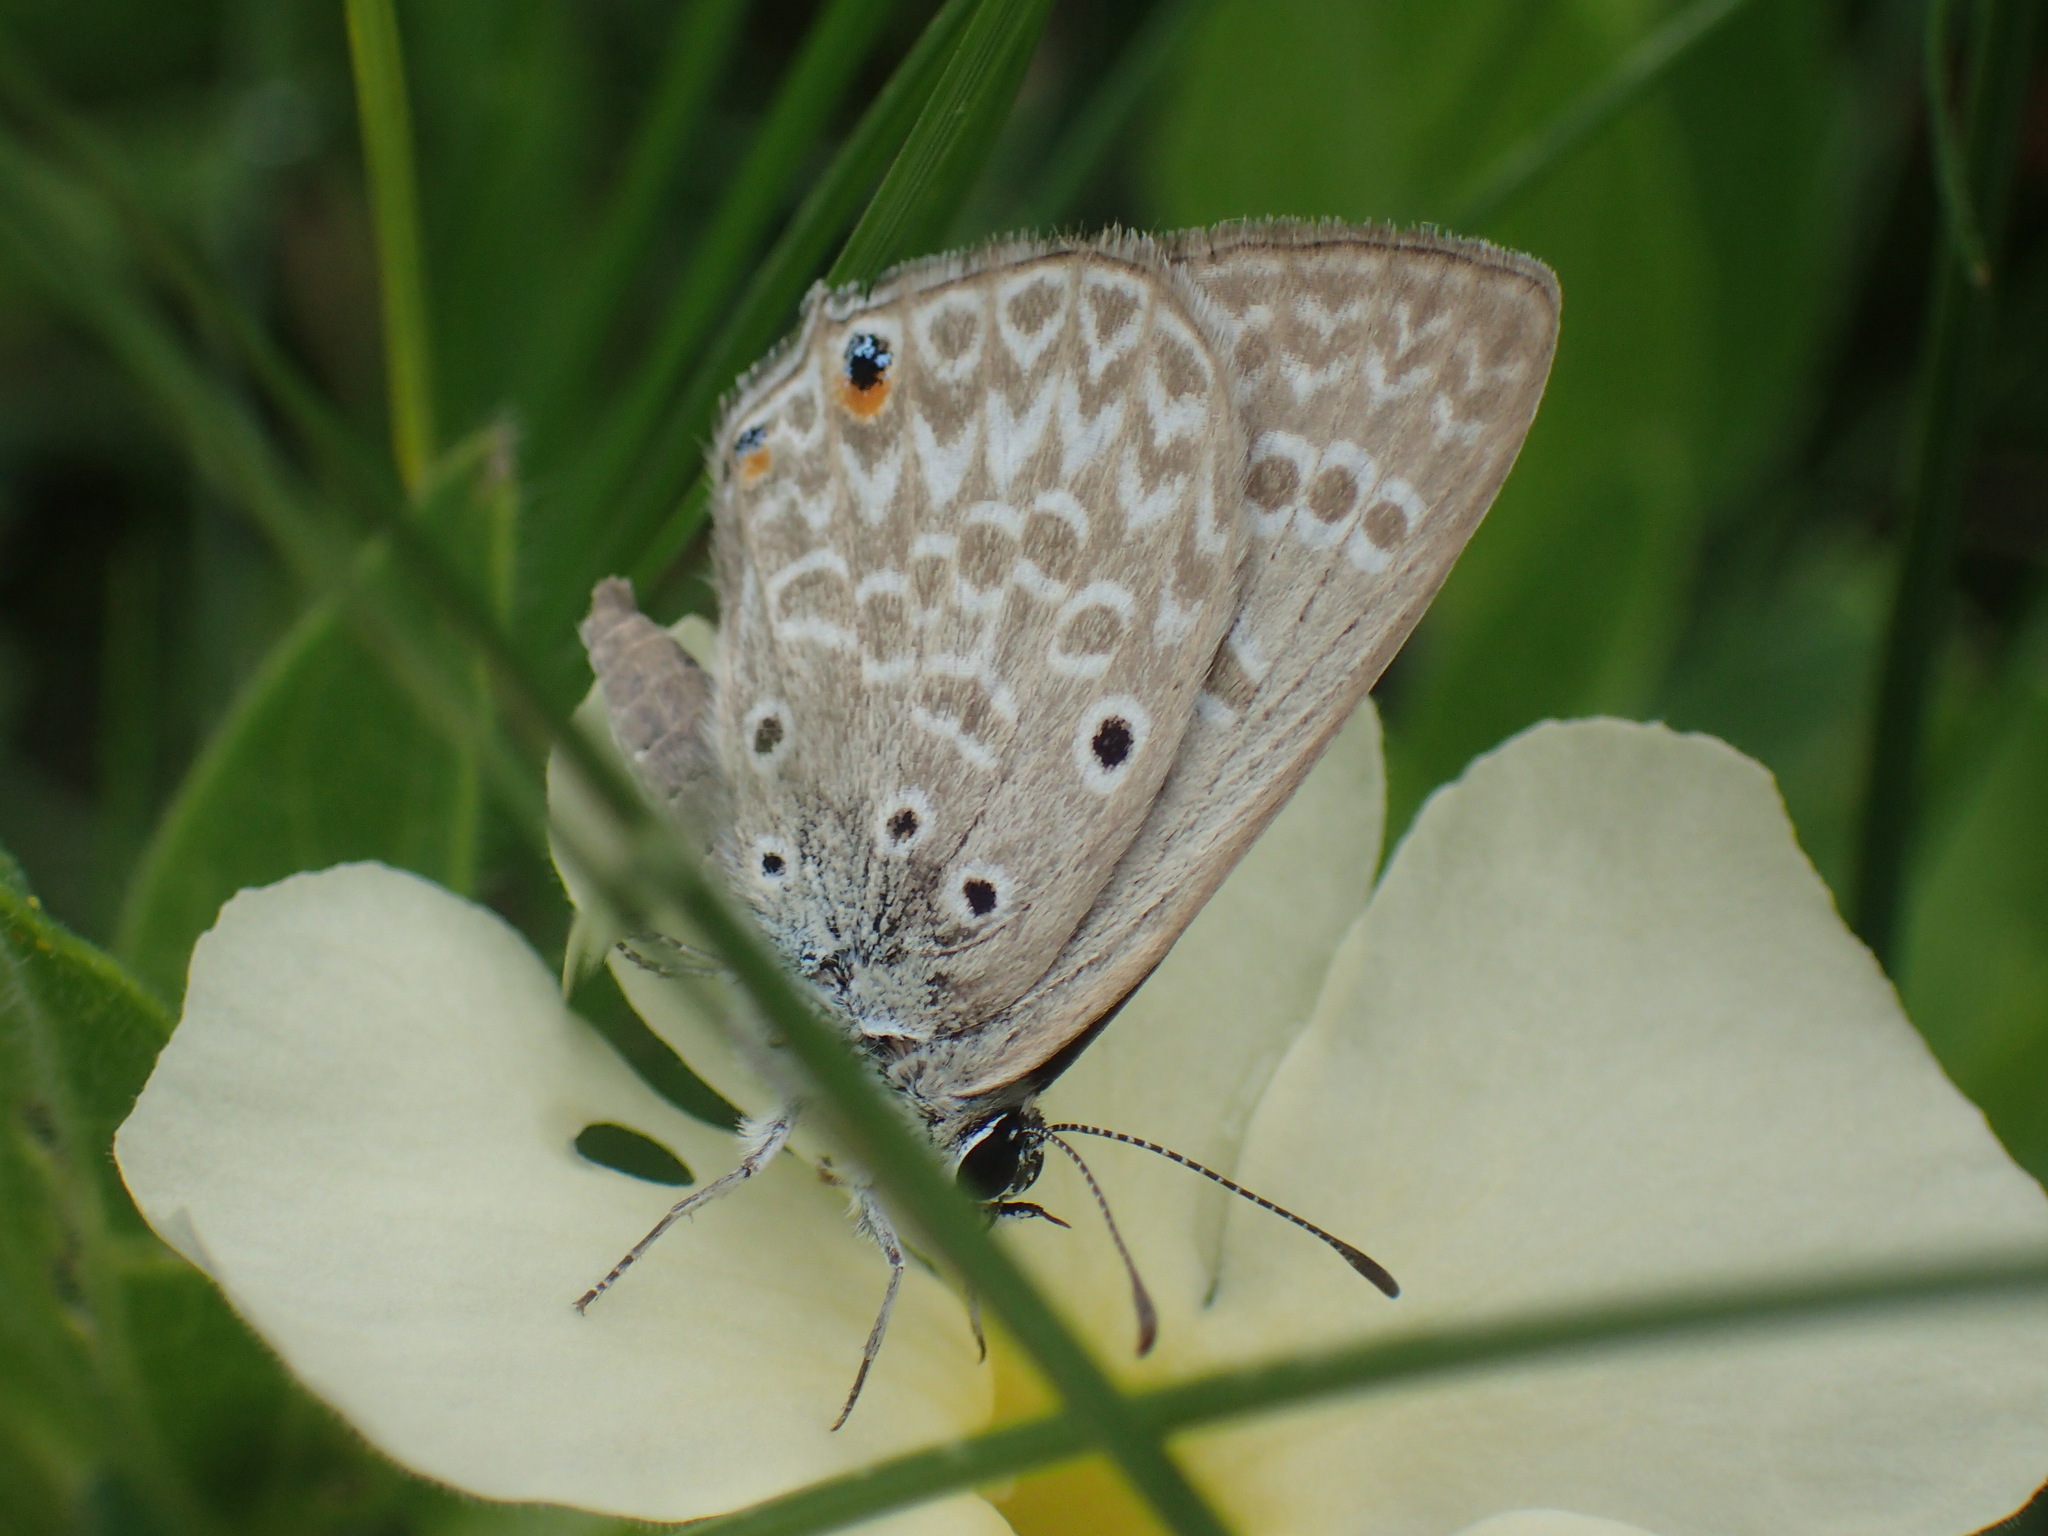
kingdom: Animalia
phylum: Arthropoda
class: Insecta
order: Lepidoptera
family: Lycaenidae
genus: Lepidochrysops
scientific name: Lepidochrysops patricia
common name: Patricia blue
